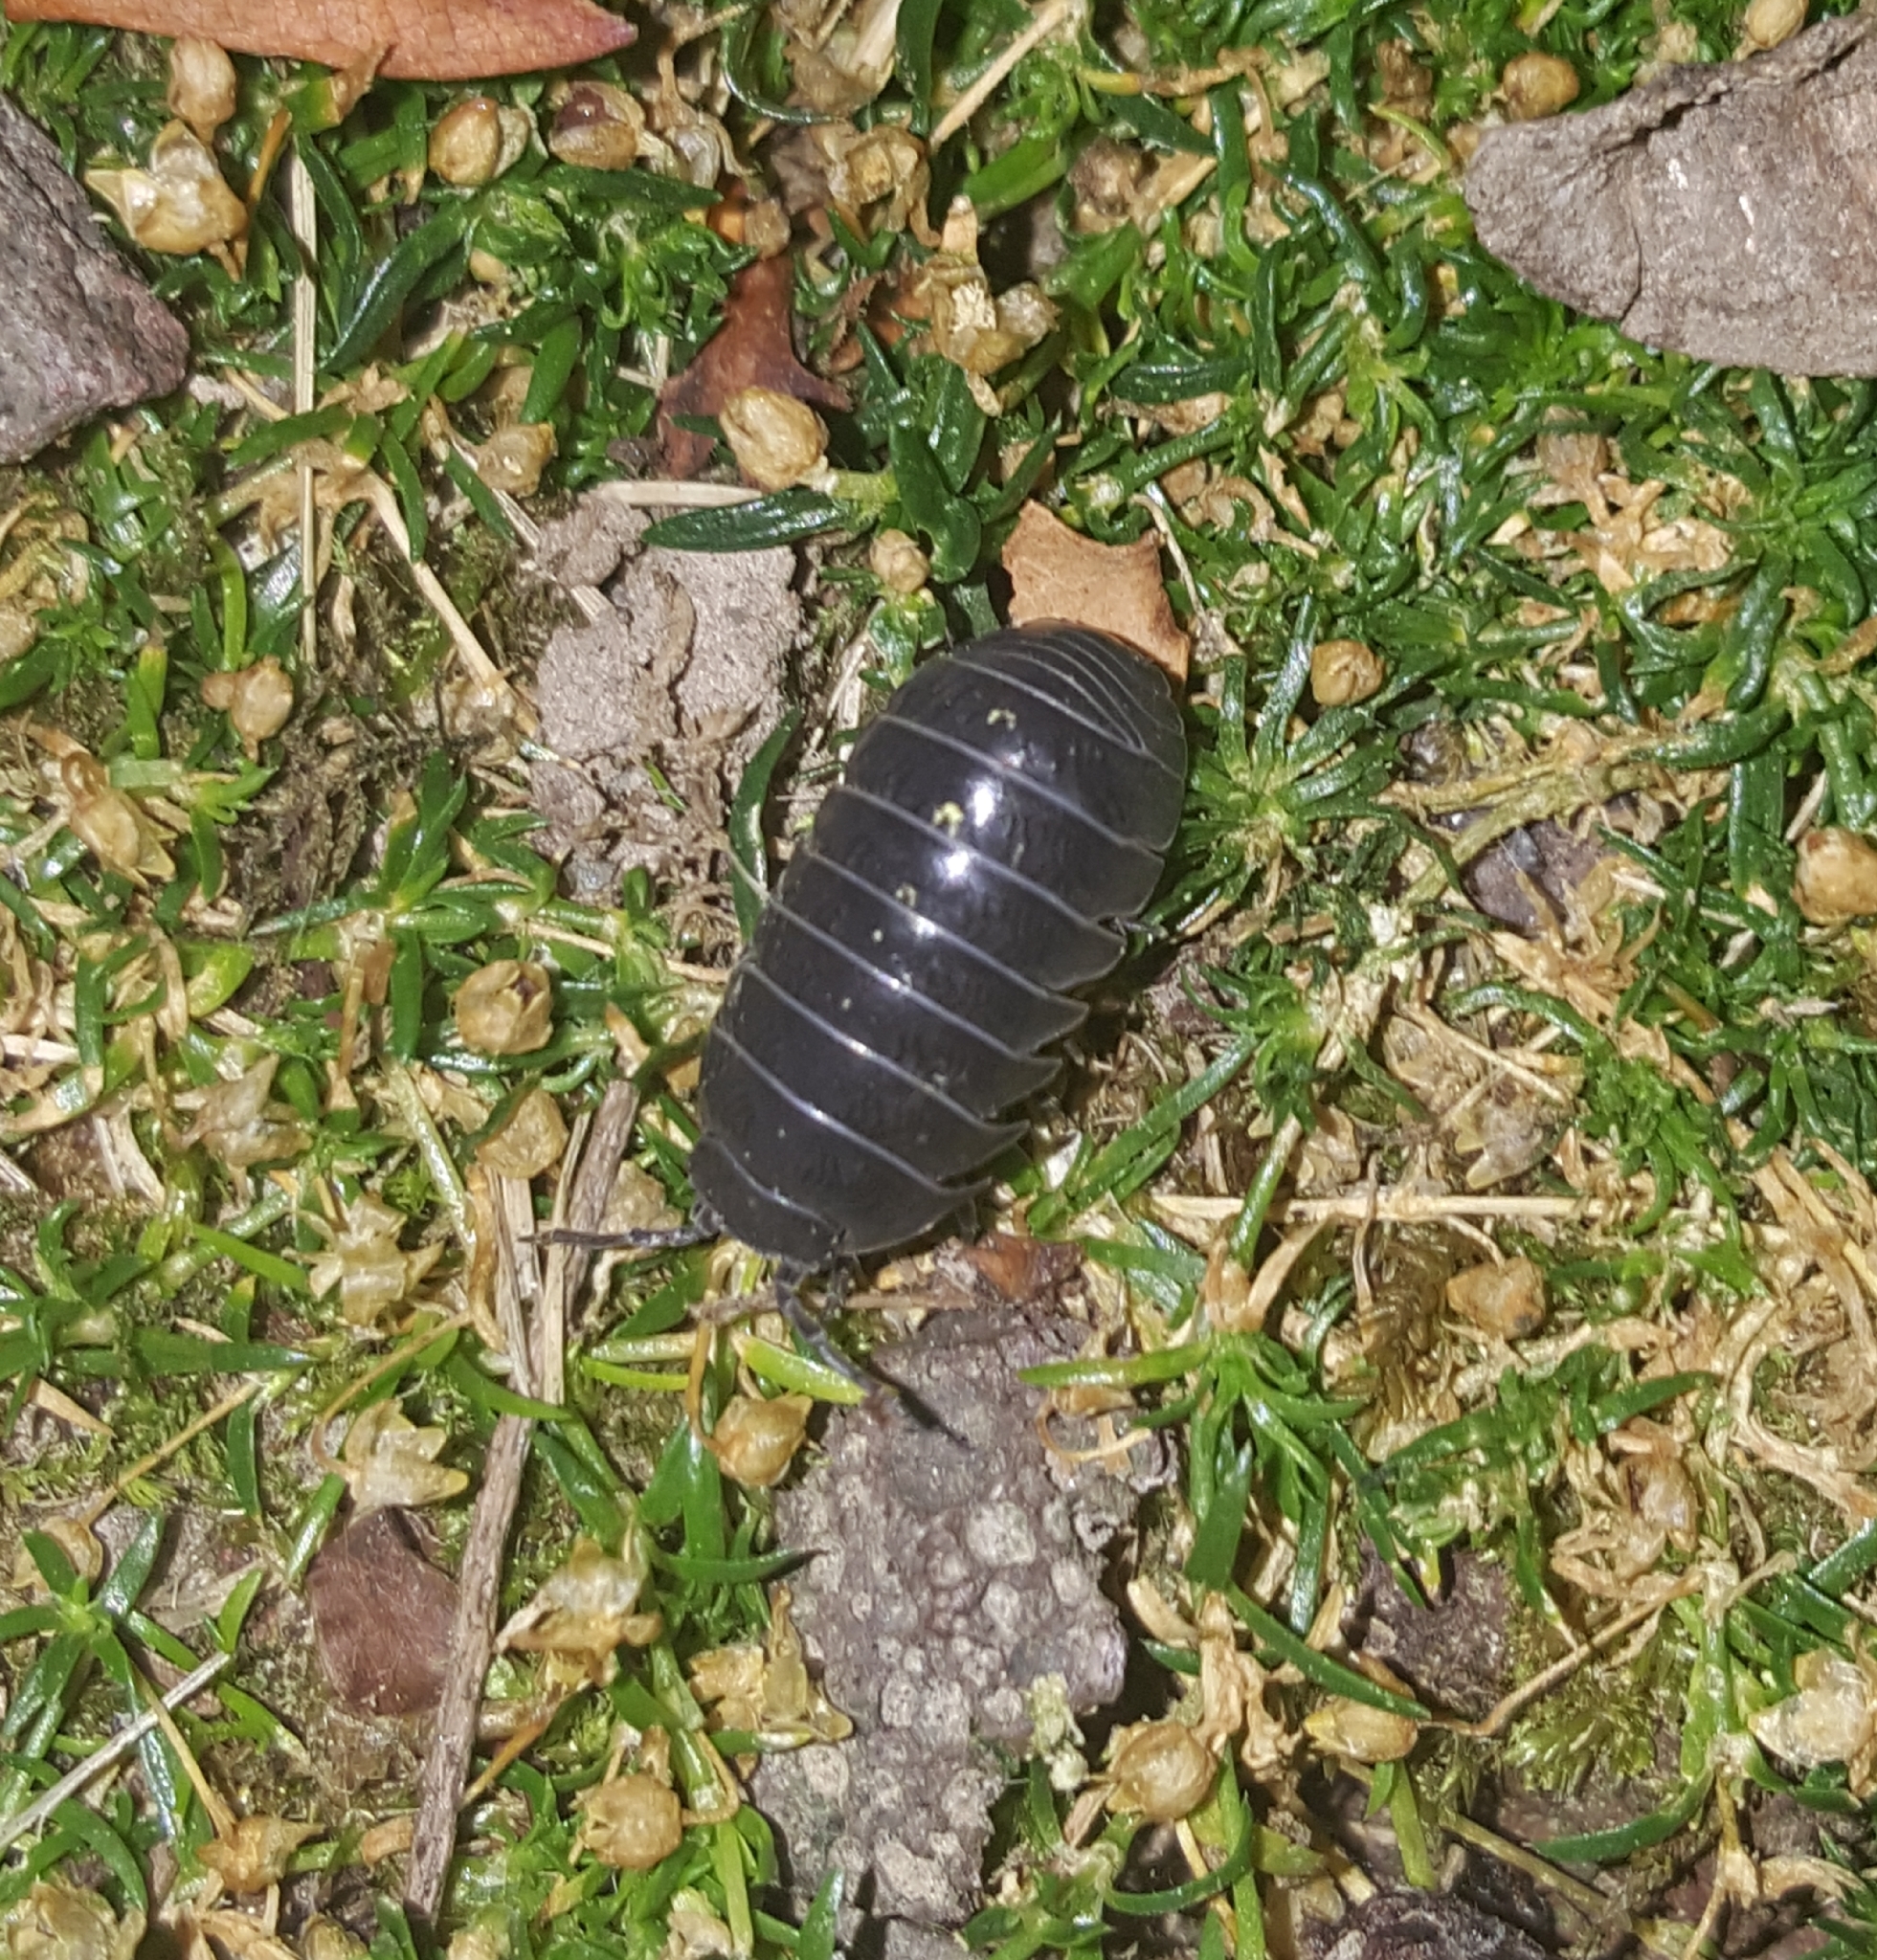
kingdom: Animalia
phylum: Arthropoda
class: Malacostraca
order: Isopoda
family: Armadillidiidae
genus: Armadillidium
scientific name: Armadillidium vulgare
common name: Common pill woodlouse
